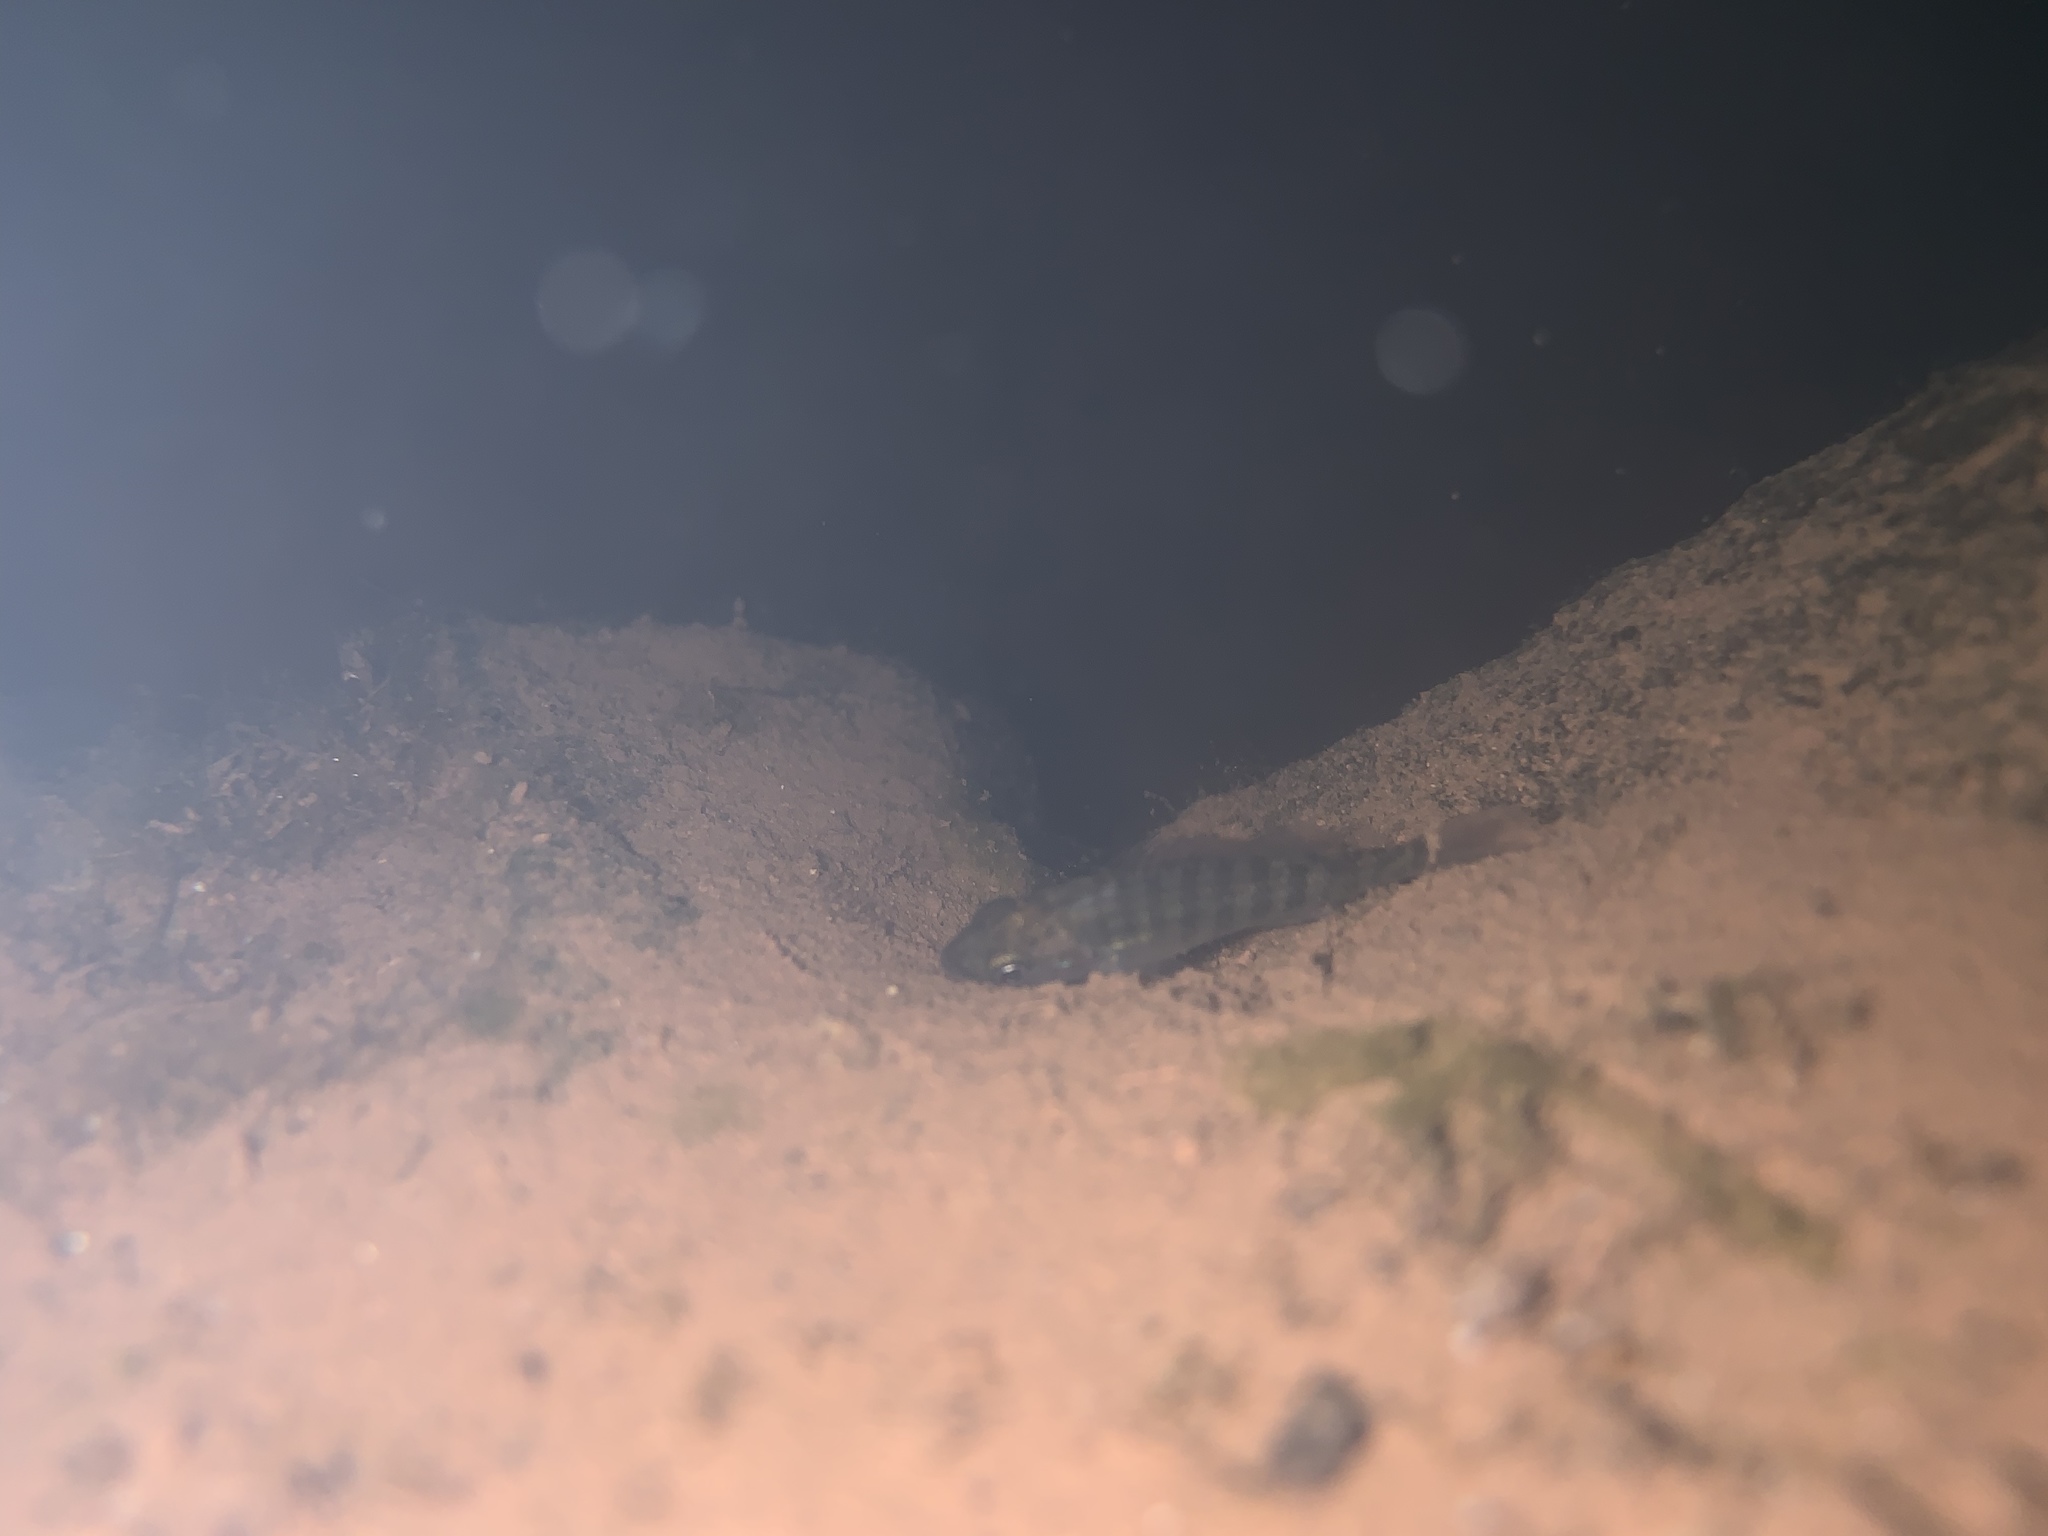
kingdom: Animalia
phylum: Chordata
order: Perciformes
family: Centrarchidae
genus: Lepomis
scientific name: Lepomis macrochirus
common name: Bluegill
